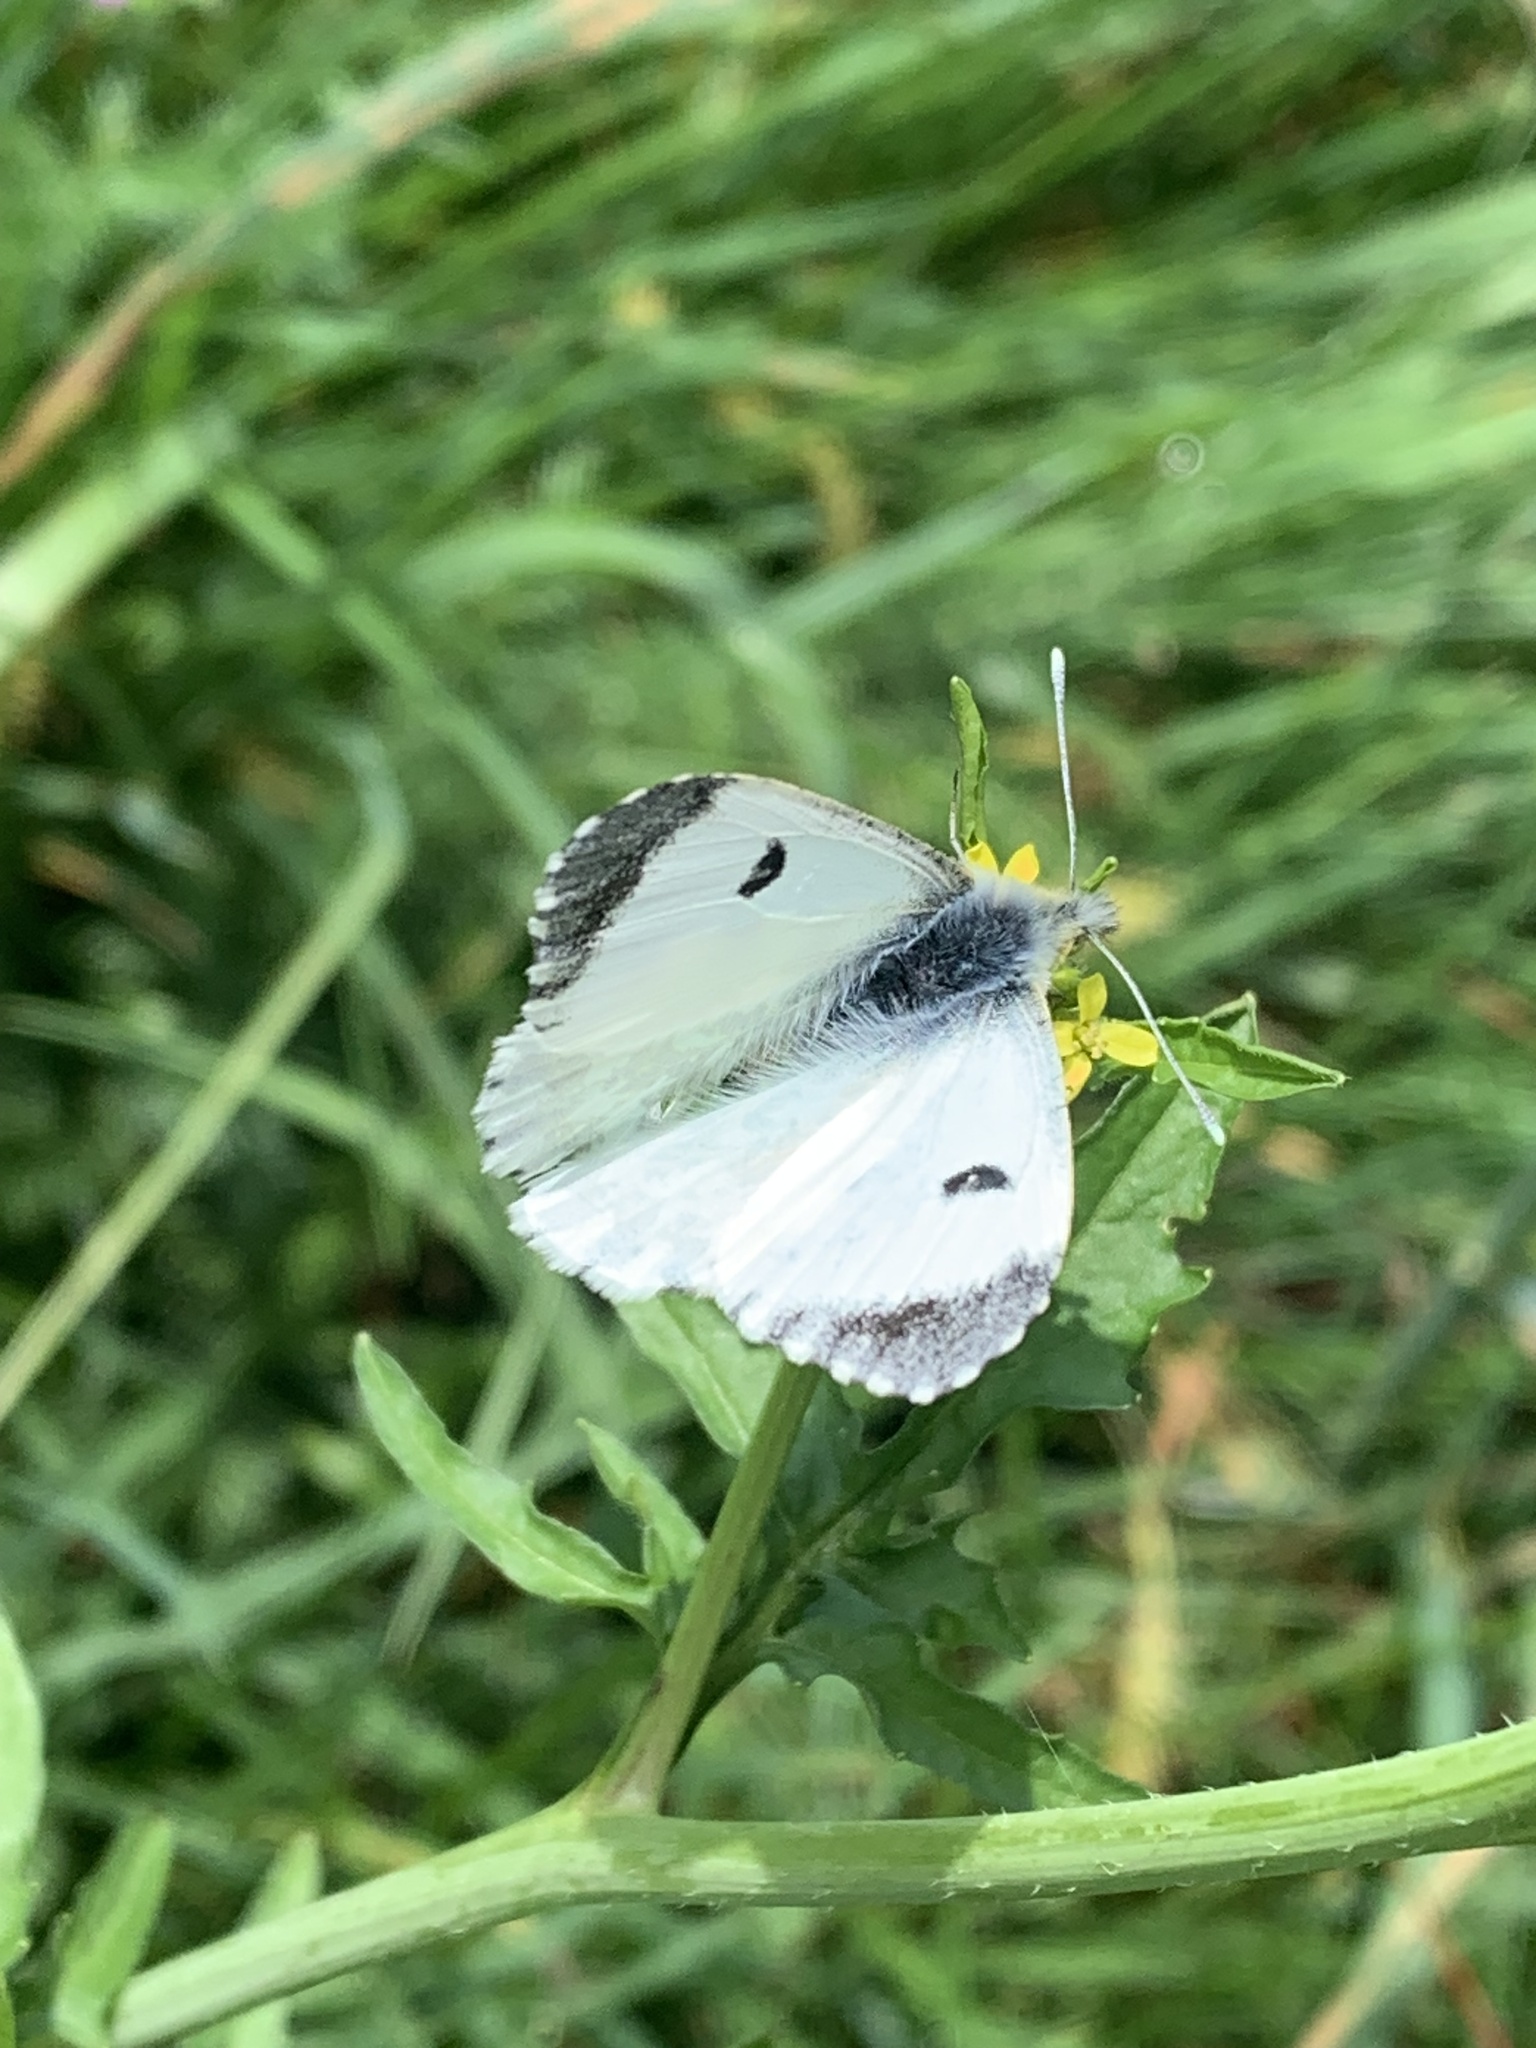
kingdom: Animalia
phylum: Arthropoda
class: Insecta
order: Lepidoptera
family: Pieridae
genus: Anthocharis
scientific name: Anthocharis cardamines
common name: Orange-tip
